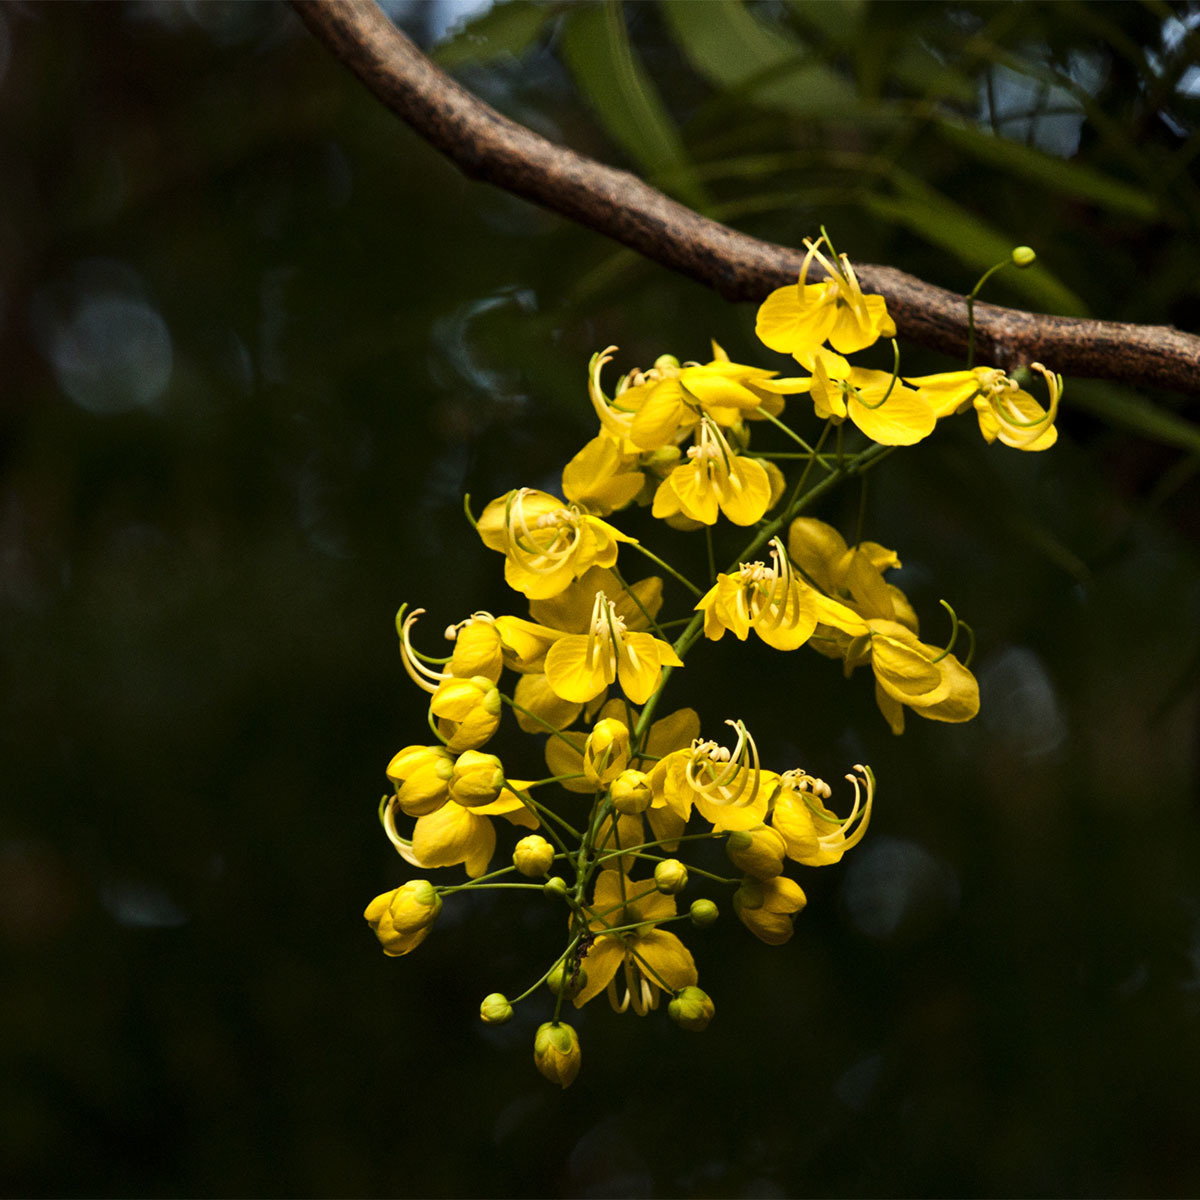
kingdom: Plantae
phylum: Tracheophyta
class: Magnoliopsida
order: Fabales
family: Fabaceae
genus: Cassia
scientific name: Cassia fistula
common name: Golden shower
